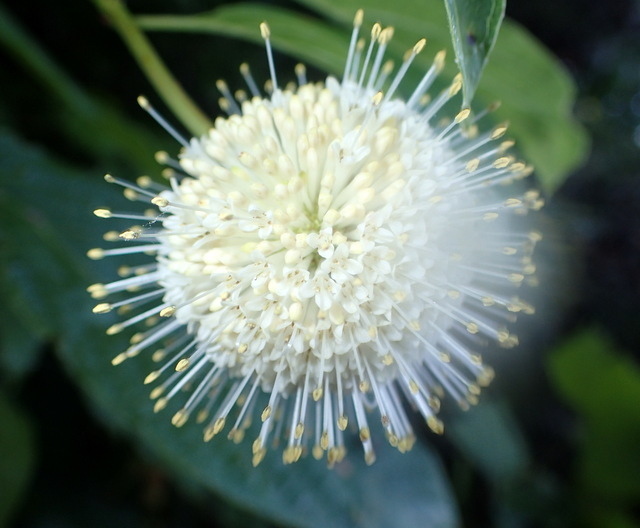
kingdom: Plantae
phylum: Tracheophyta
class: Magnoliopsida
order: Gentianales
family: Rubiaceae
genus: Cephalanthus
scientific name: Cephalanthus occidentalis
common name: Button-willow
